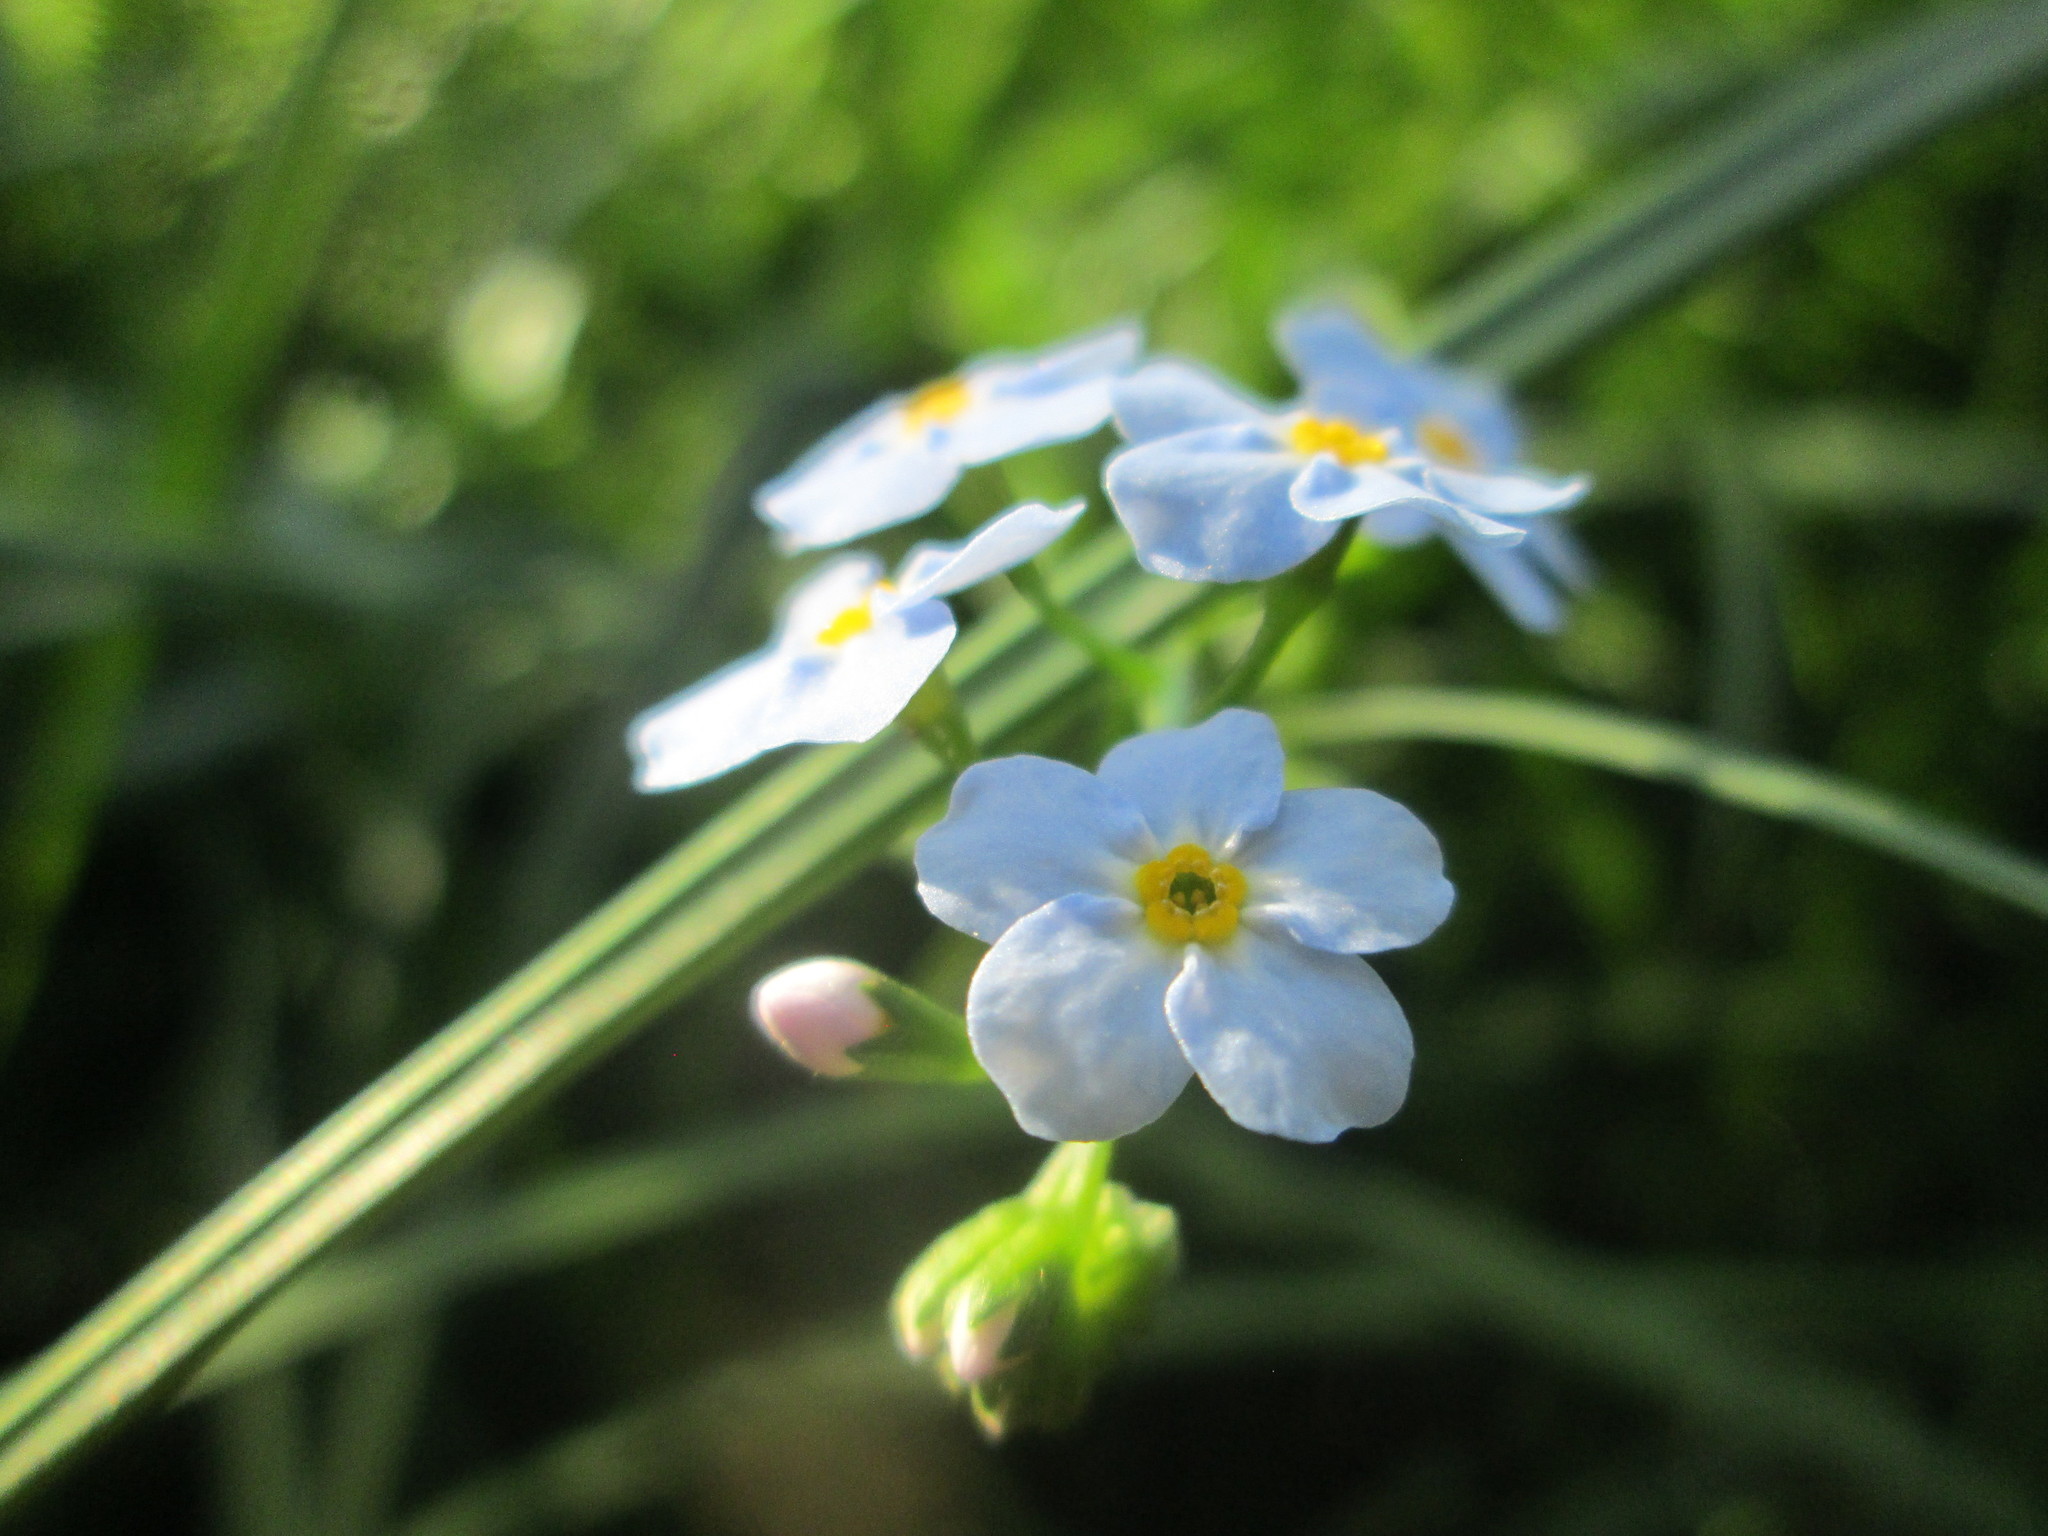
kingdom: Plantae
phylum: Tracheophyta
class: Magnoliopsida
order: Boraginales
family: Boraginaceae
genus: Myosotis
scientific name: Myosotis scorpioides
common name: Water forget-me-not
